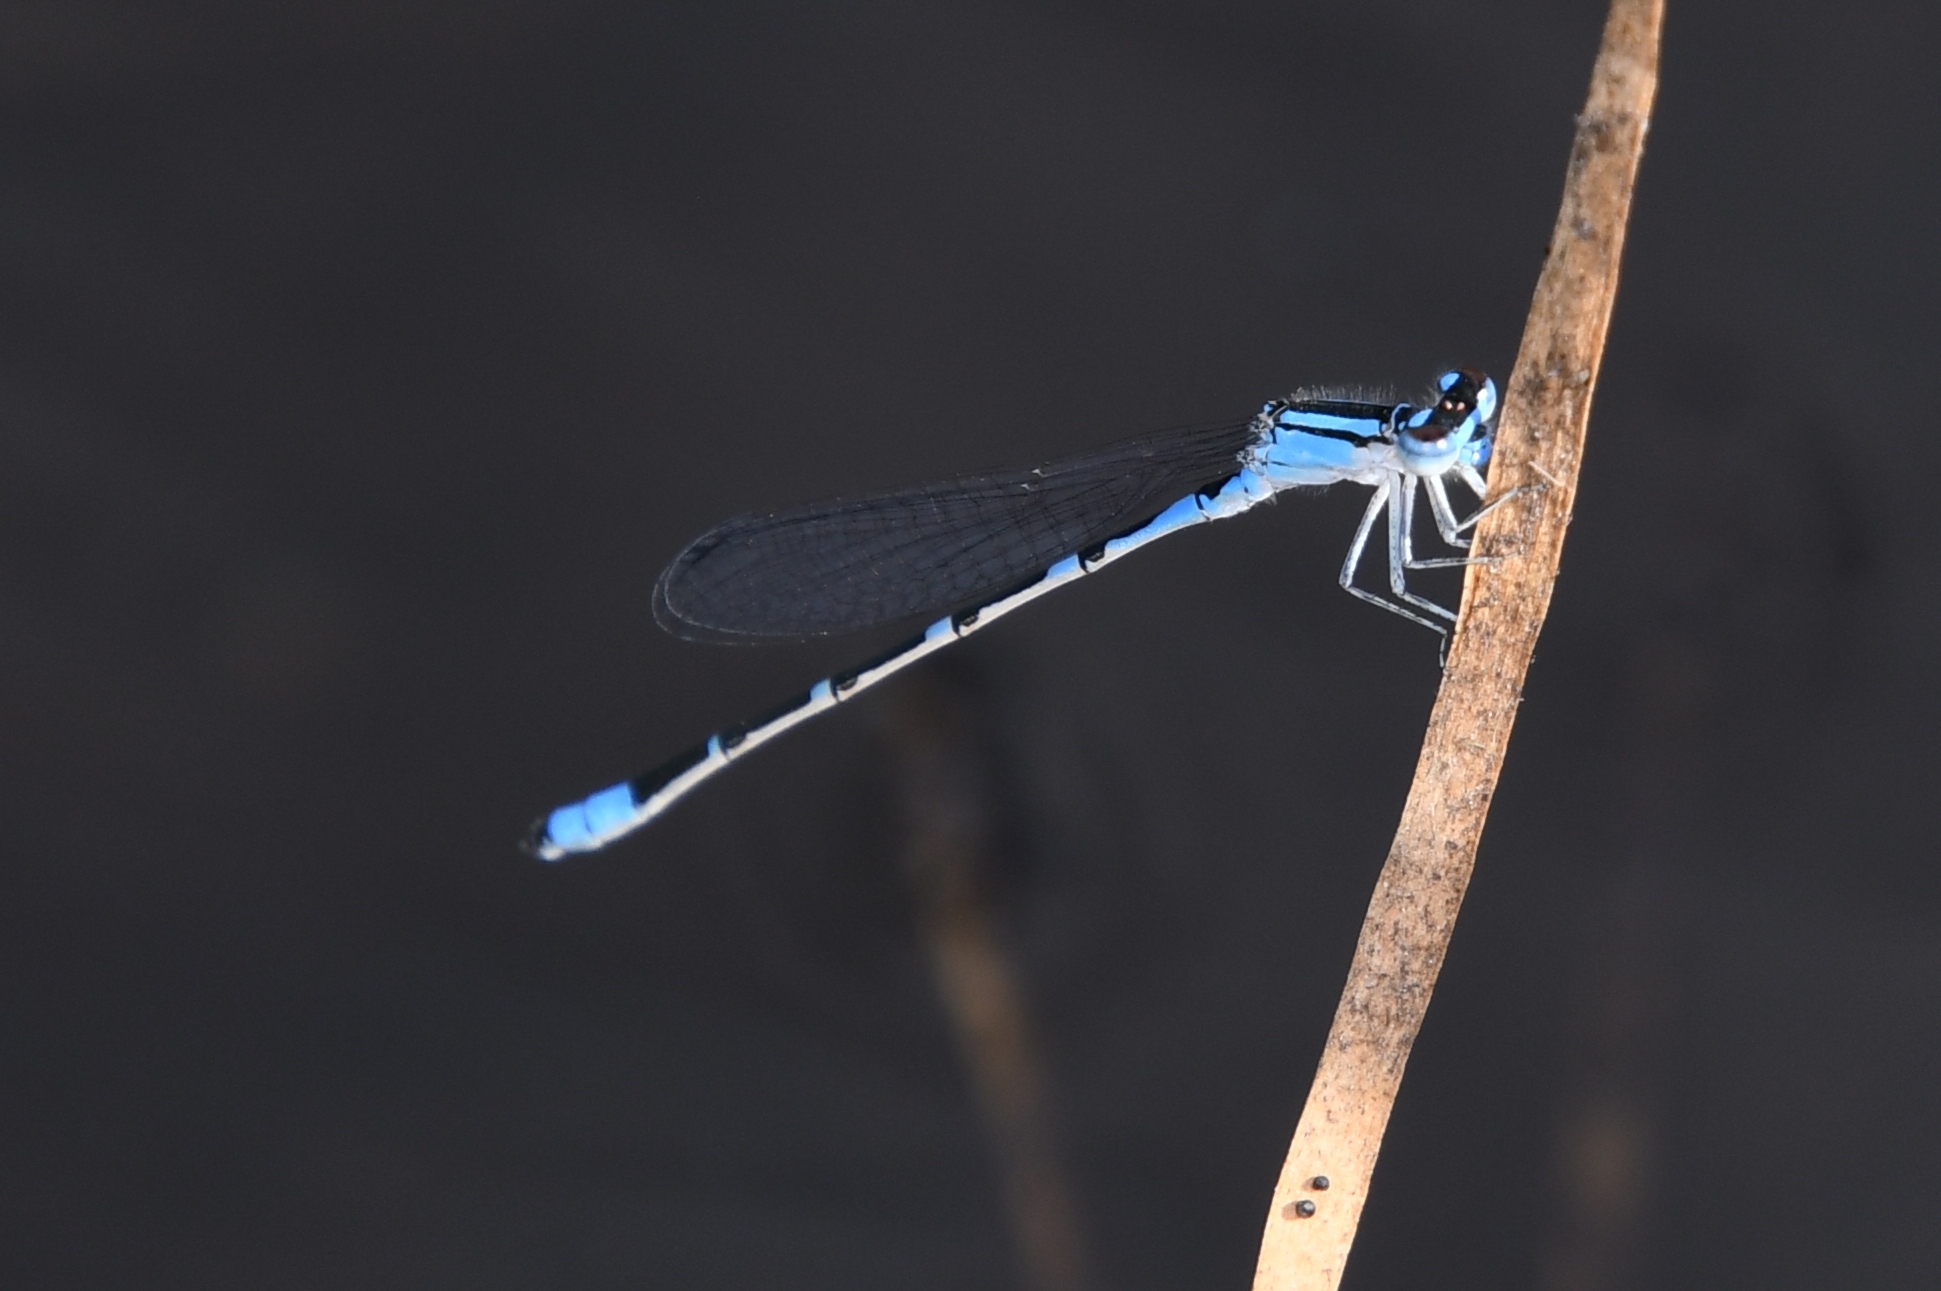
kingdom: Animalia
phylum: Arthropoda
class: Insecta
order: Odonata
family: Coenagrionidae
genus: Enallagma
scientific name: Enallagma praevarum
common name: Arroyo bluet
